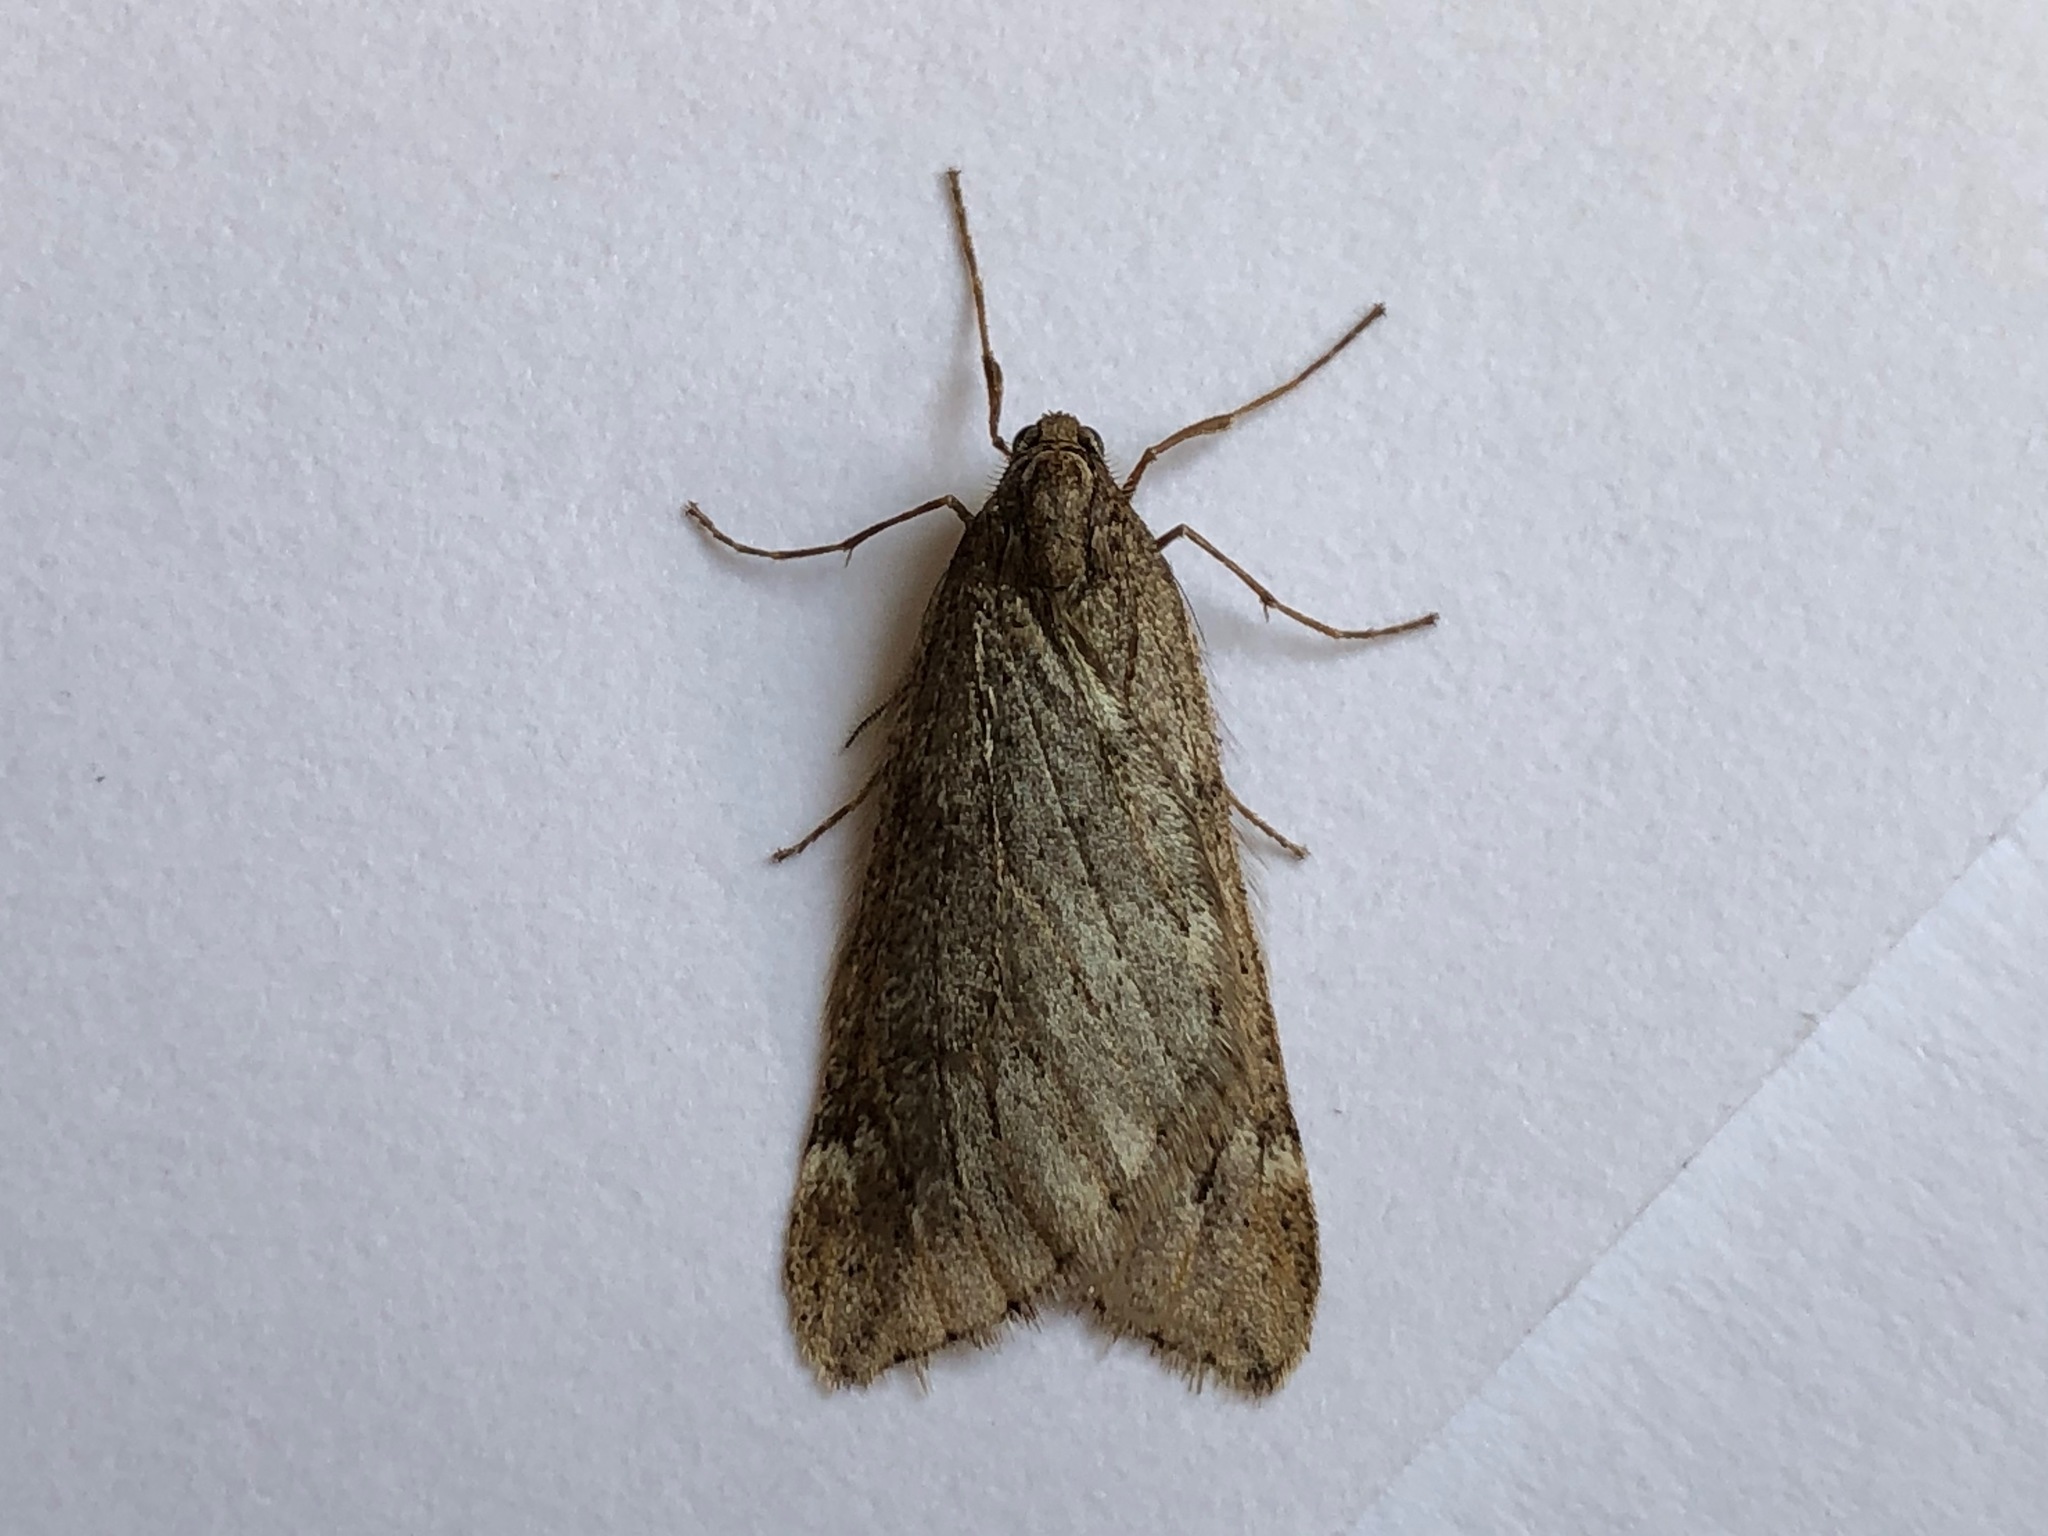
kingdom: Animalia
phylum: Arthropoda
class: Insecta
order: Lepidoptera
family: Geometridae
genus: Alsophila
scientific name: Alsophila aescularia
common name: March moth
